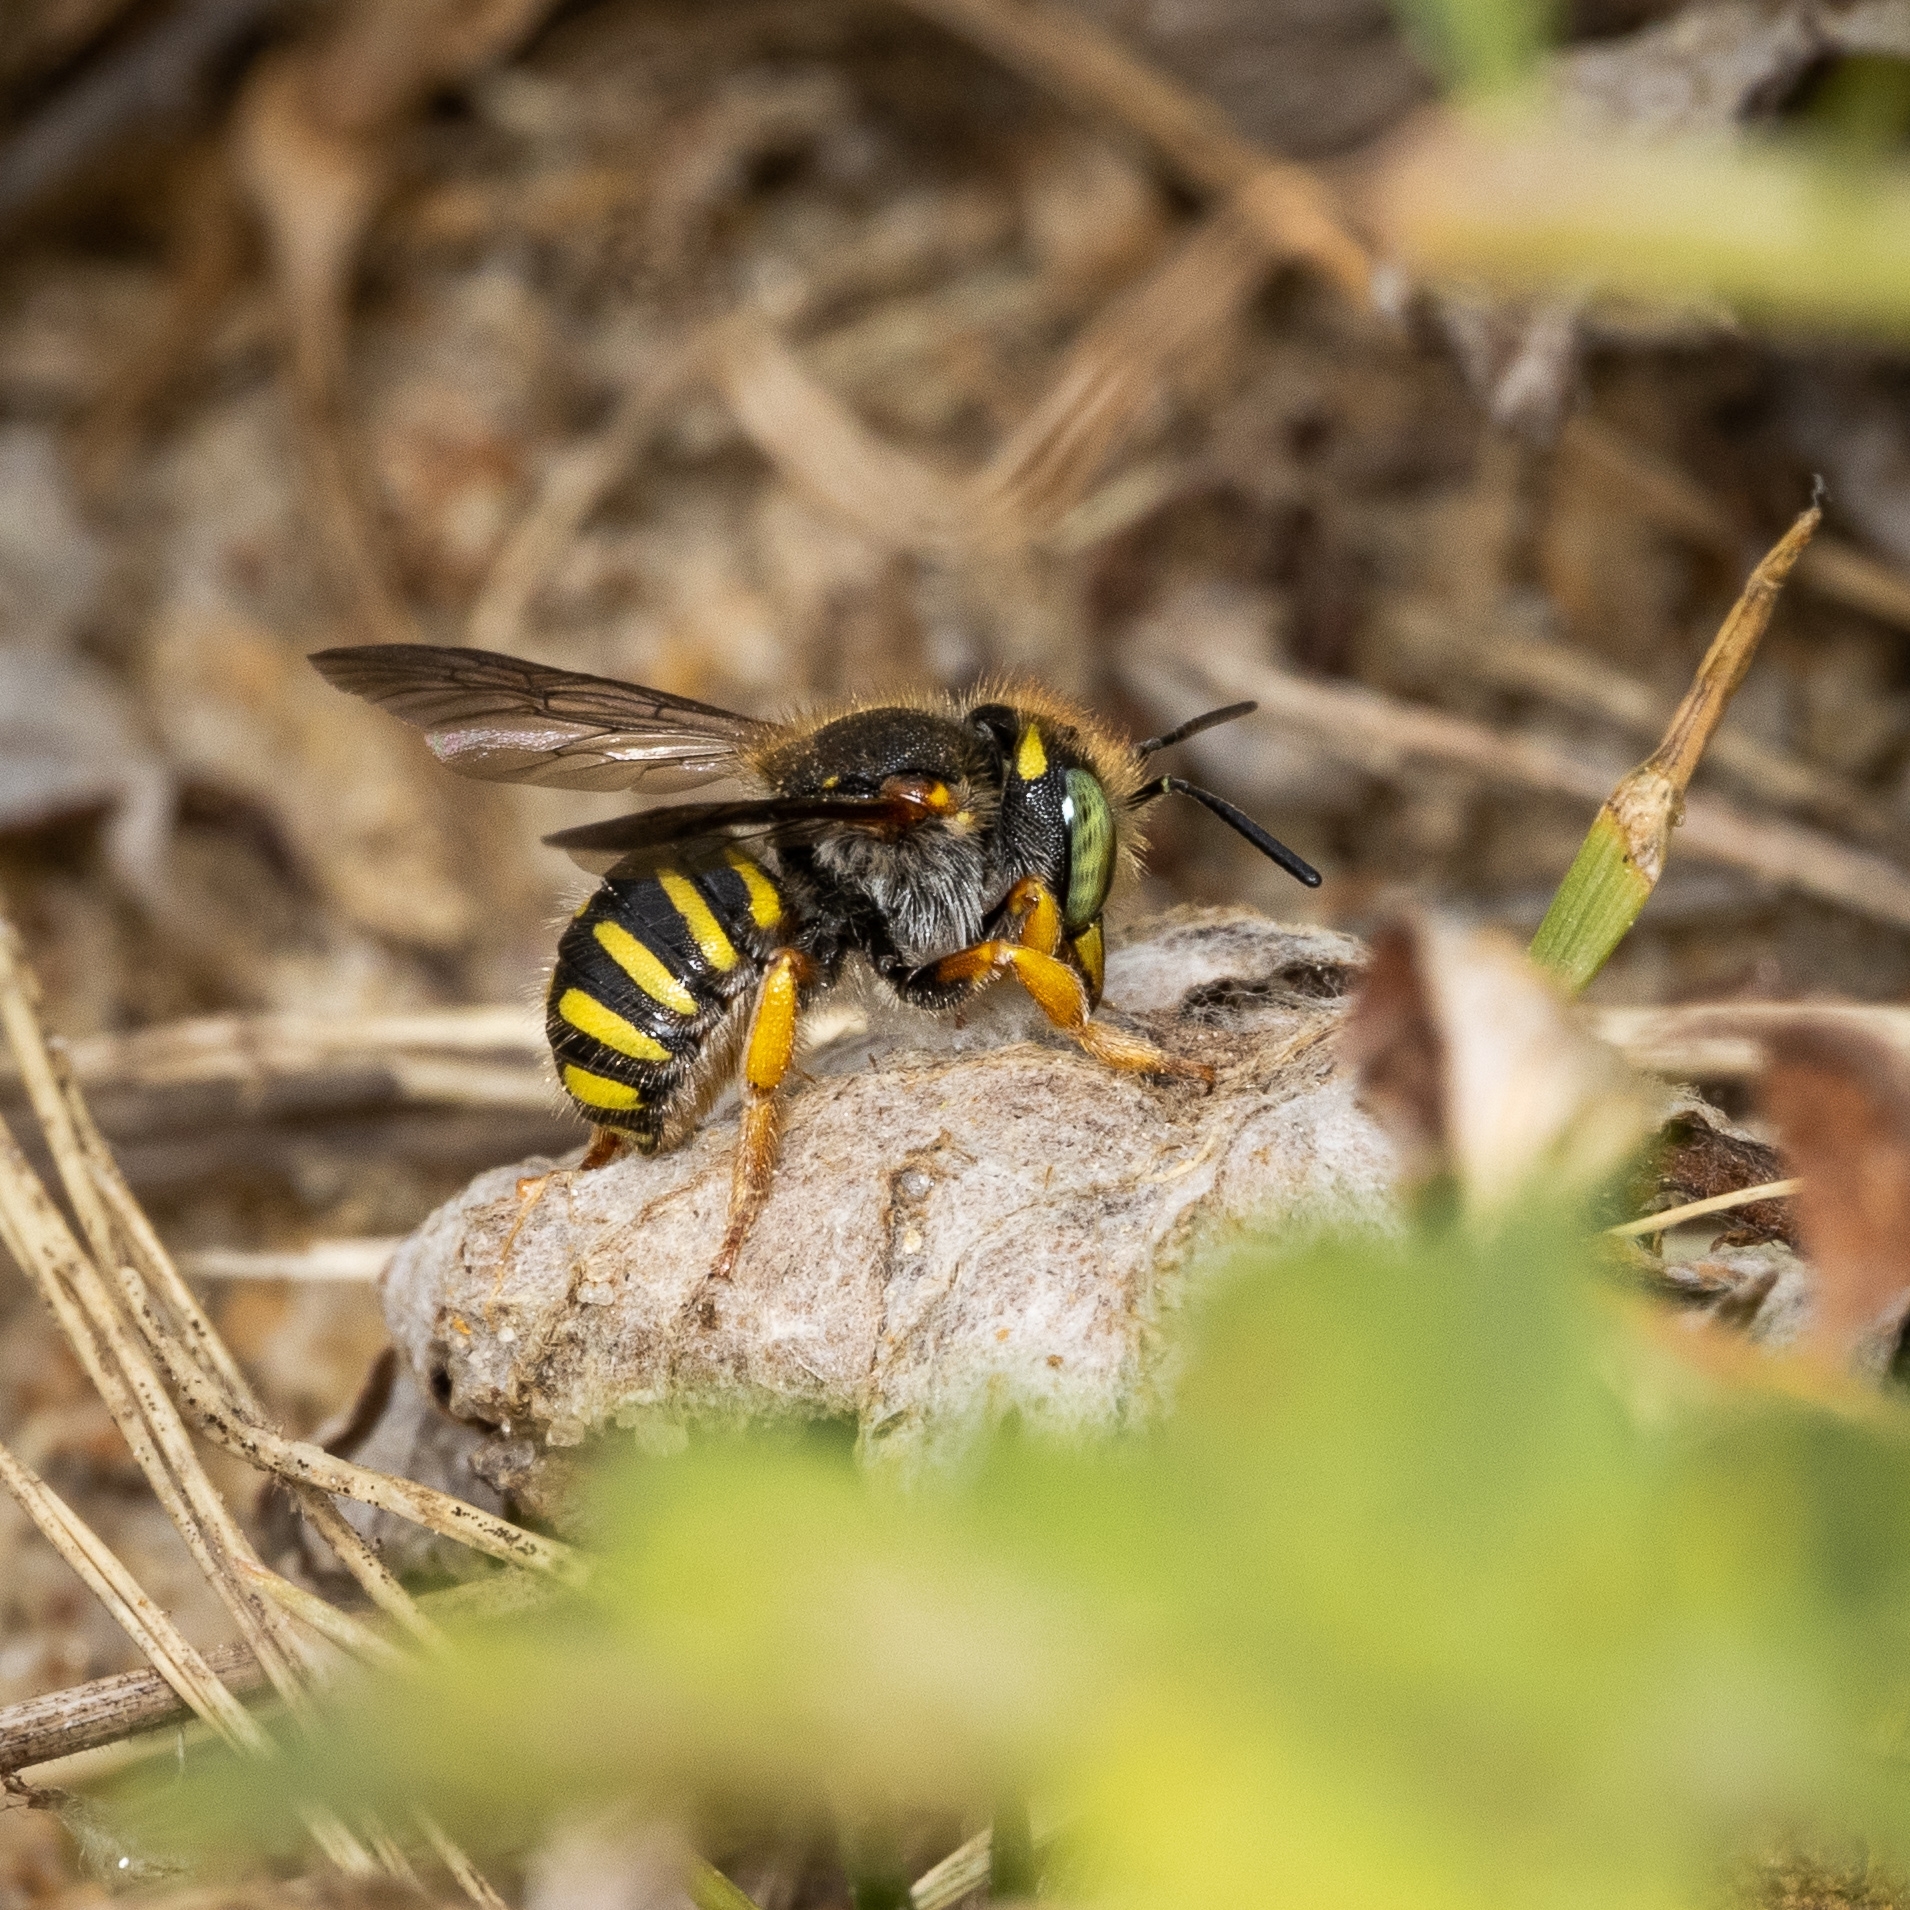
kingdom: Animalia
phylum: Arthropoda
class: Insecta
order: Hymenoptera
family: Megachilidae
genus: Anthidium
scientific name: Anthidium oblongatum
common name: Oblong wool carder bee
